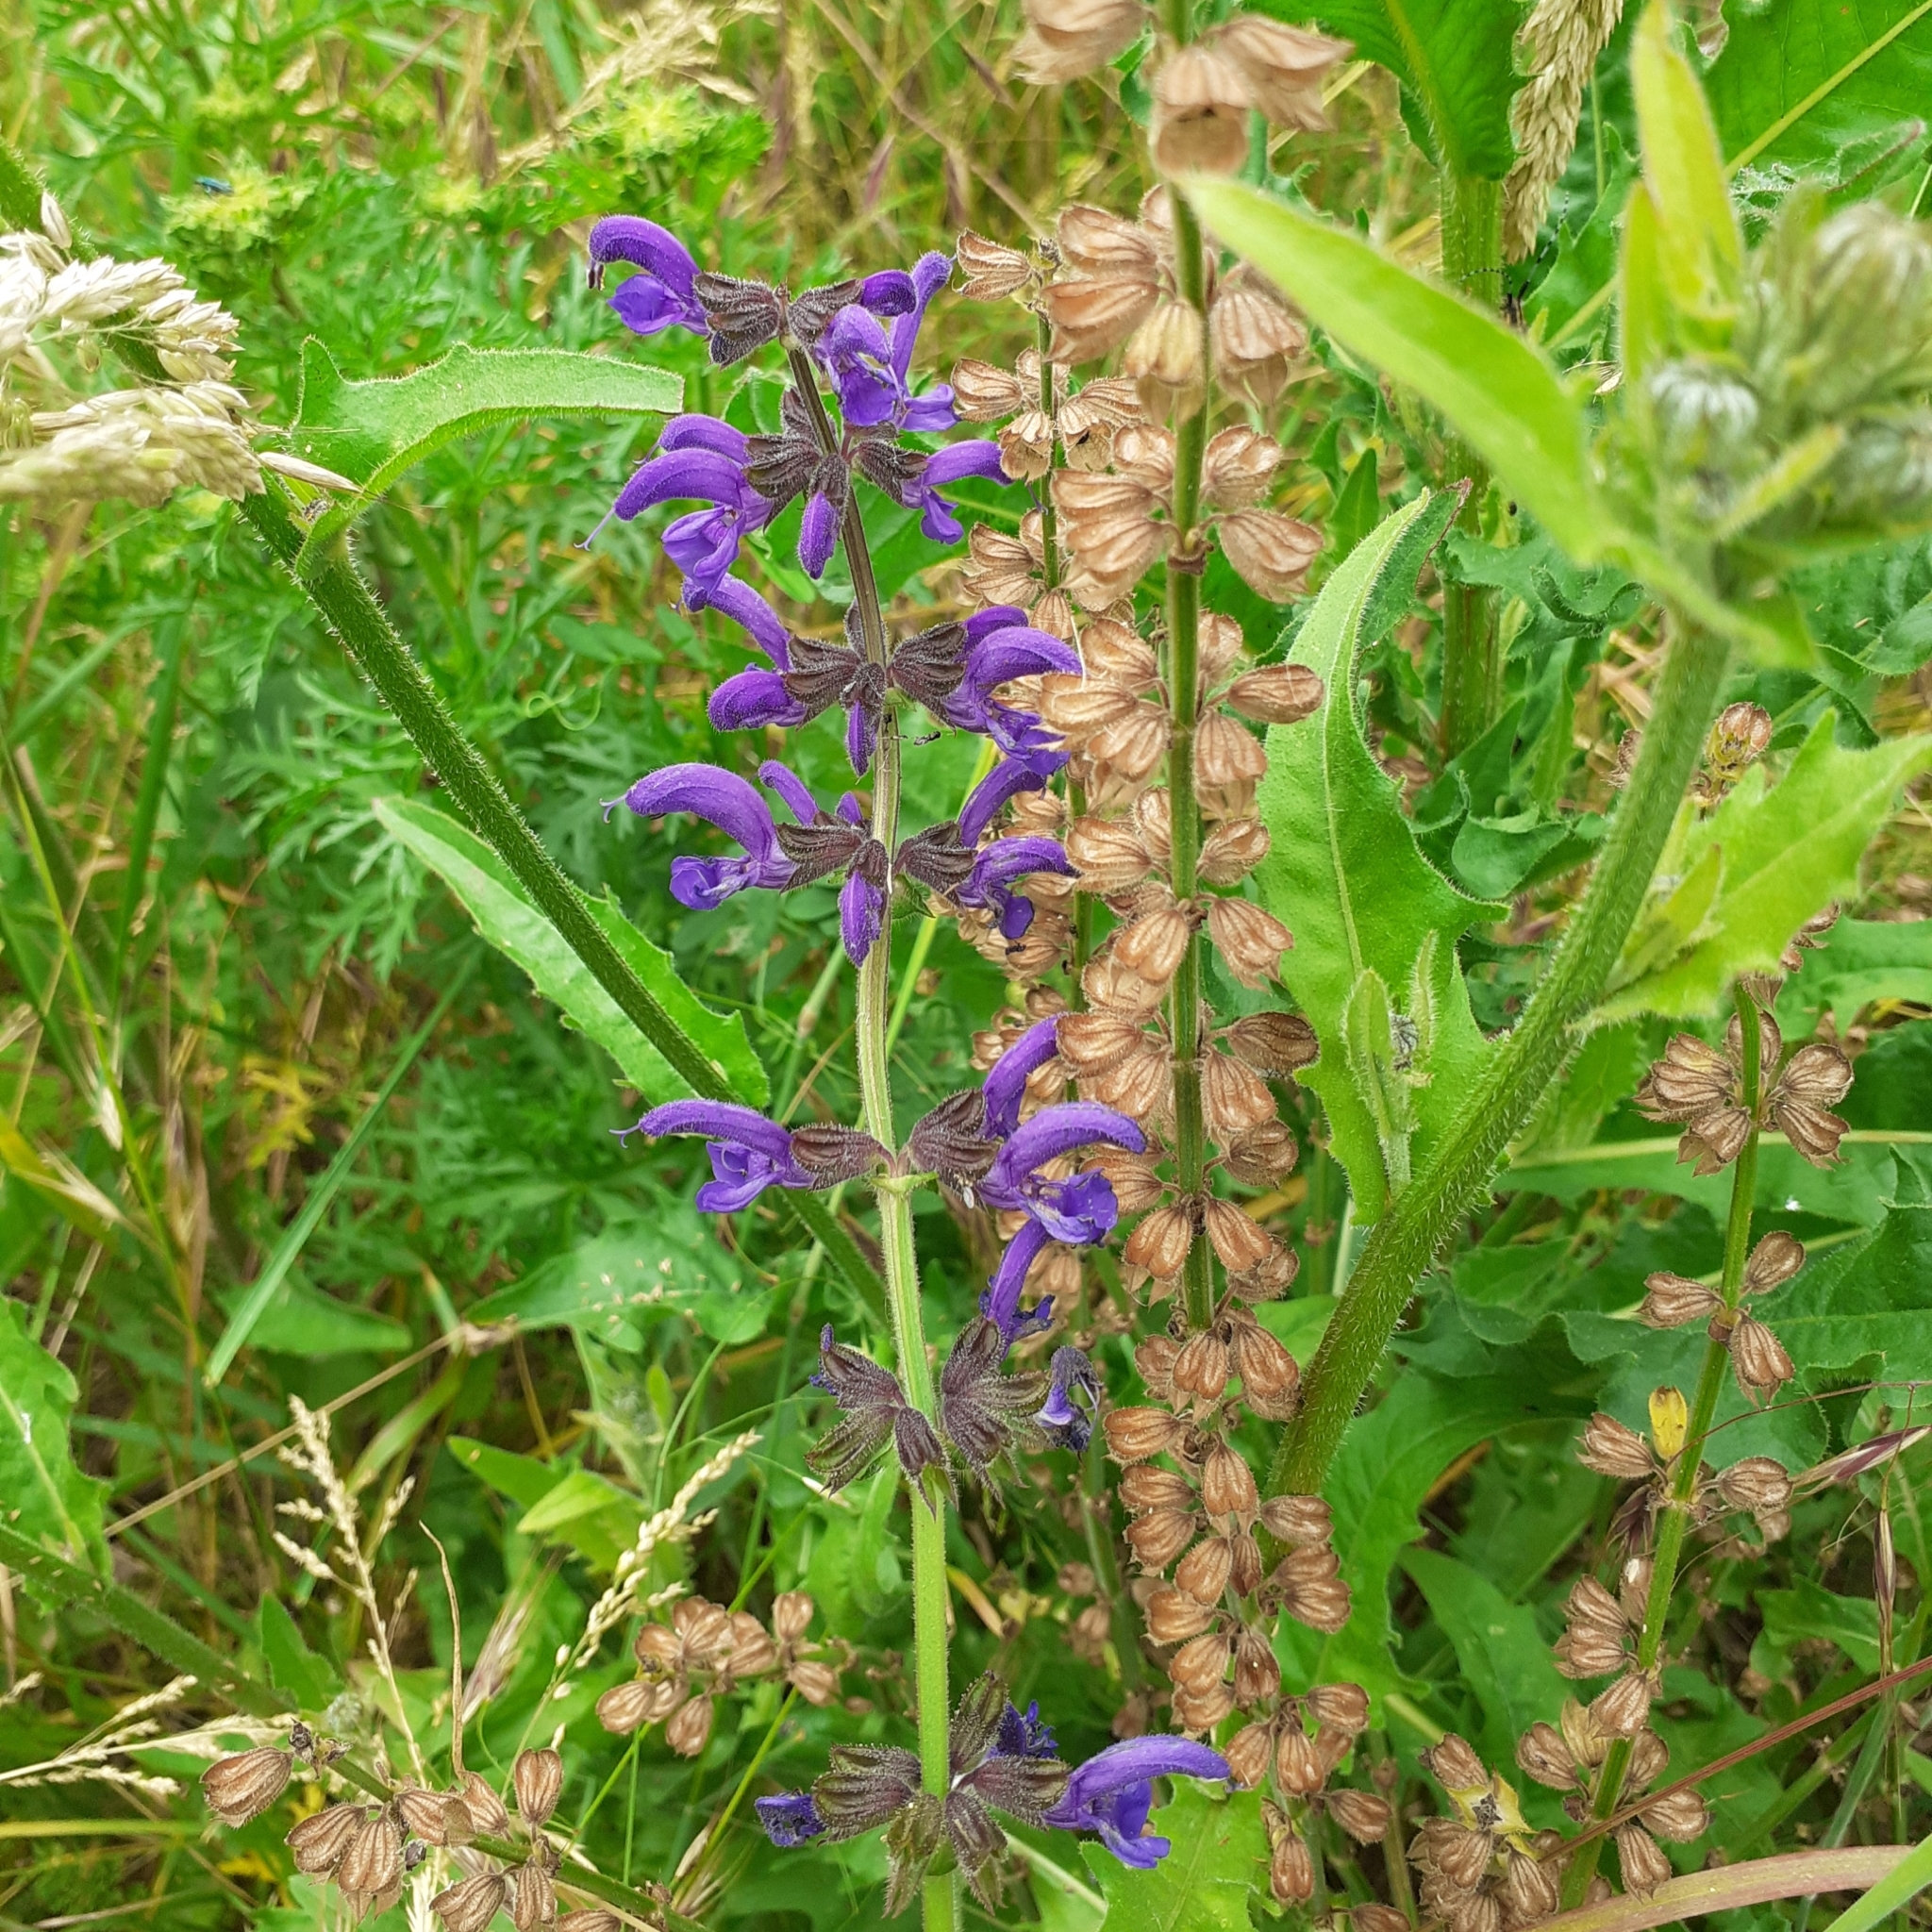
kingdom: Plantae
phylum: Tracheophyta
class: Magnoliopsida
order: Lamiales
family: Lamiaceae
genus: Salvia
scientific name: Salvia pratensis
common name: Meadow sage
